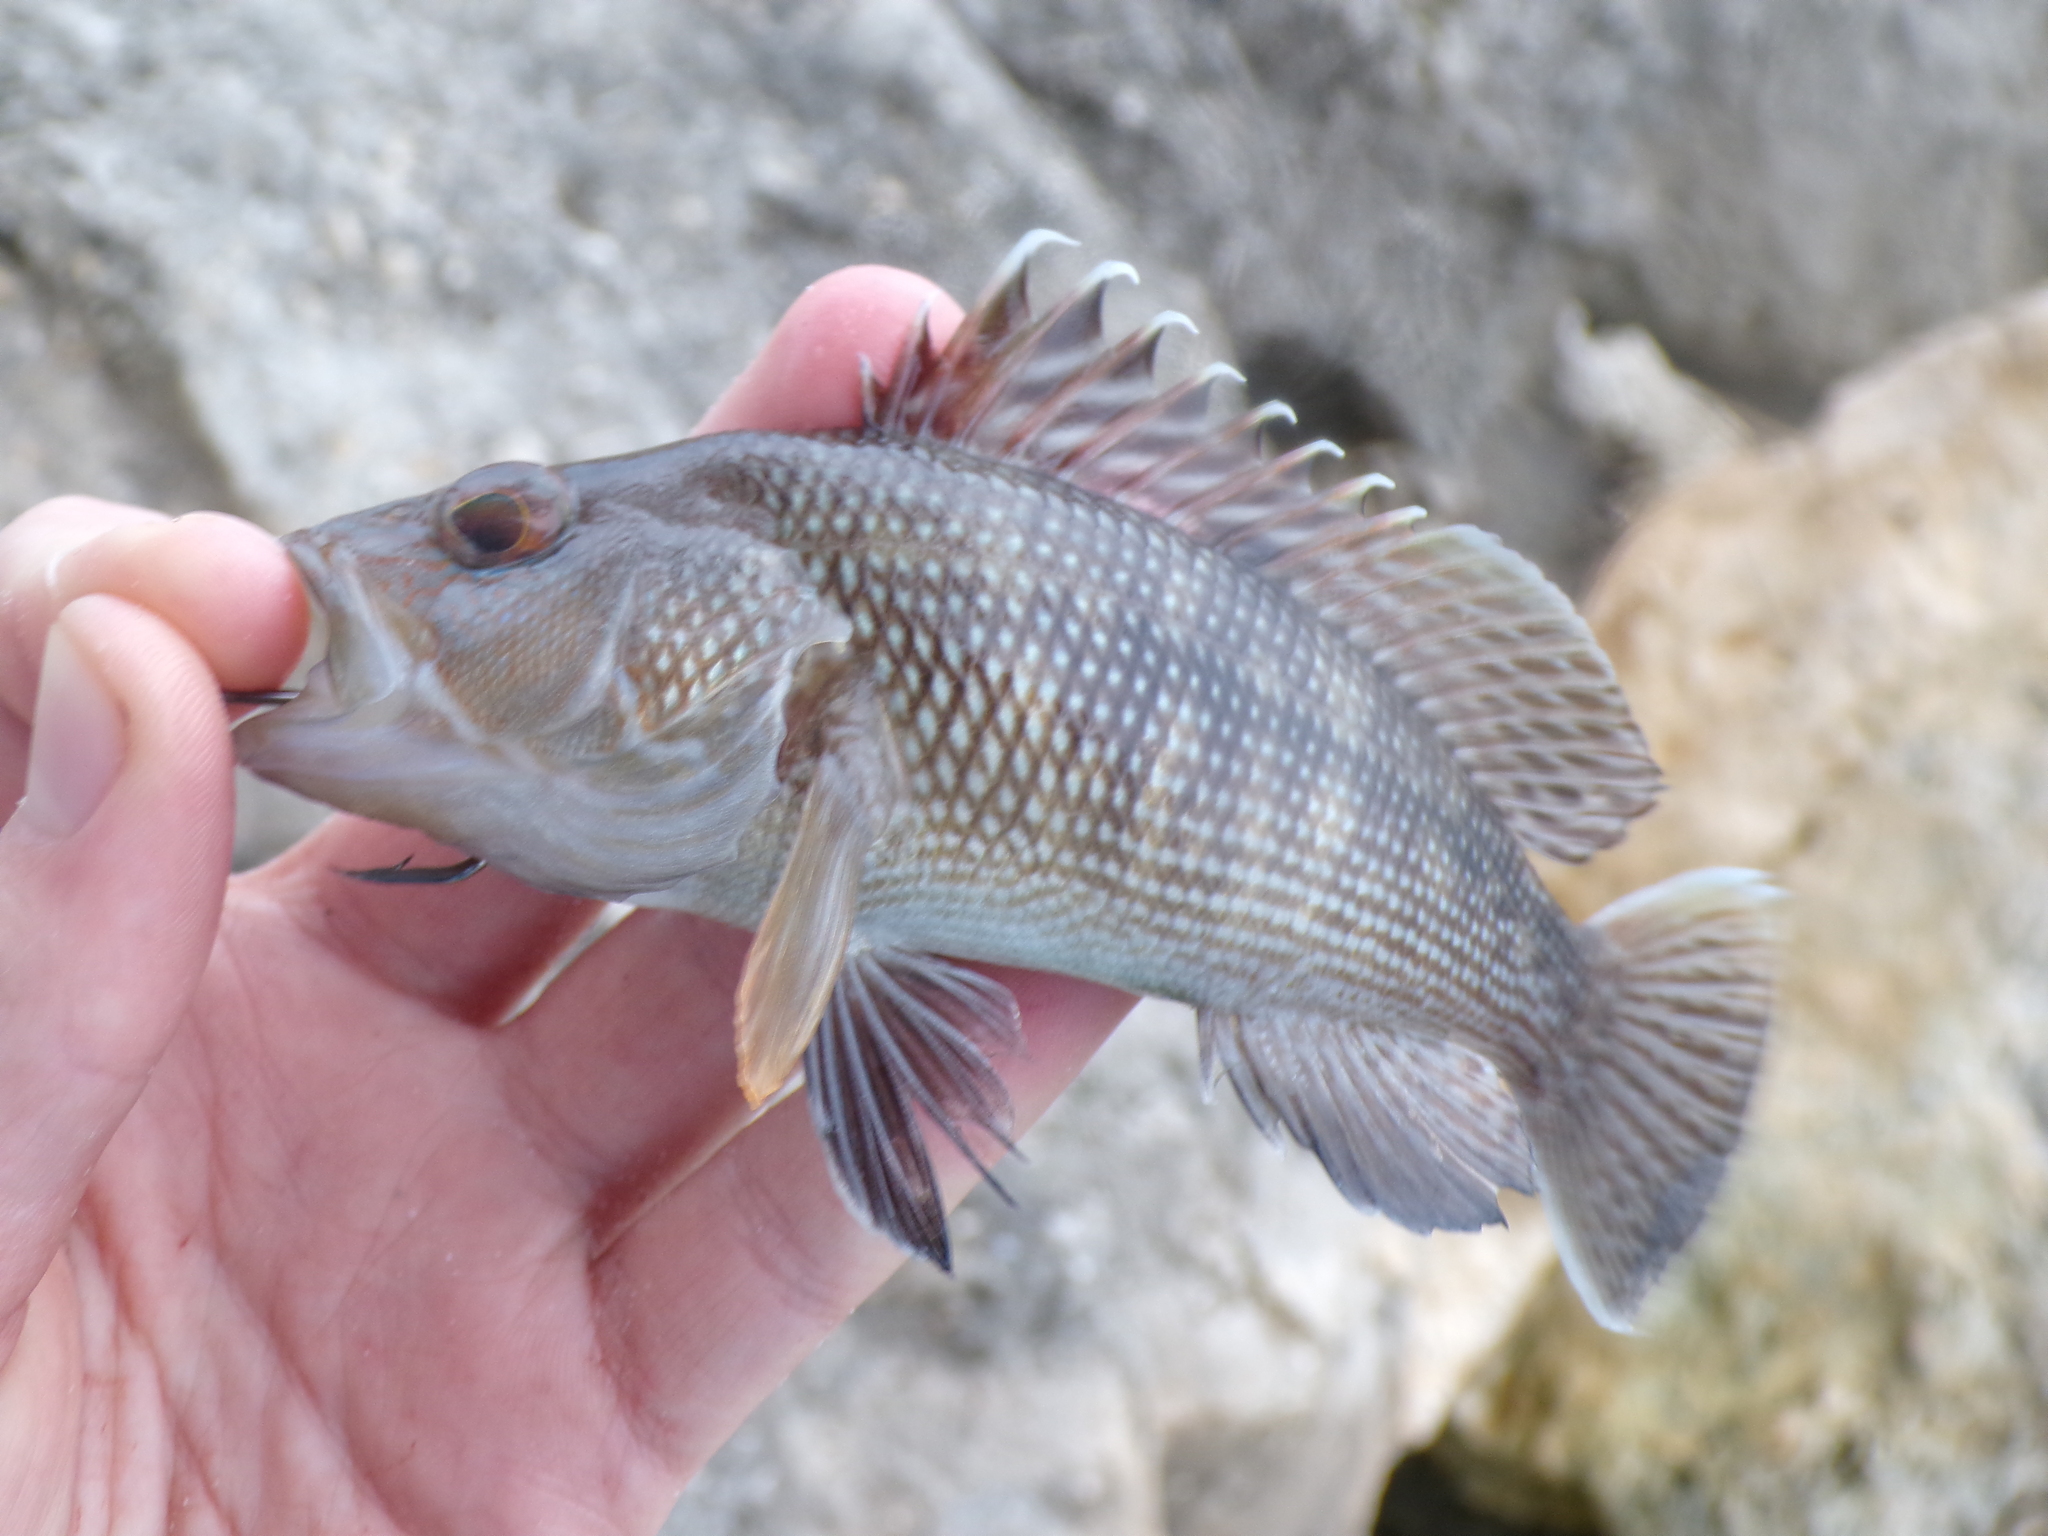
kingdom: Animalia
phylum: Chordata
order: Perciformes
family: Serranidae
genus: Centropristis
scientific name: Centropristis striata
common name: Black sea bass
